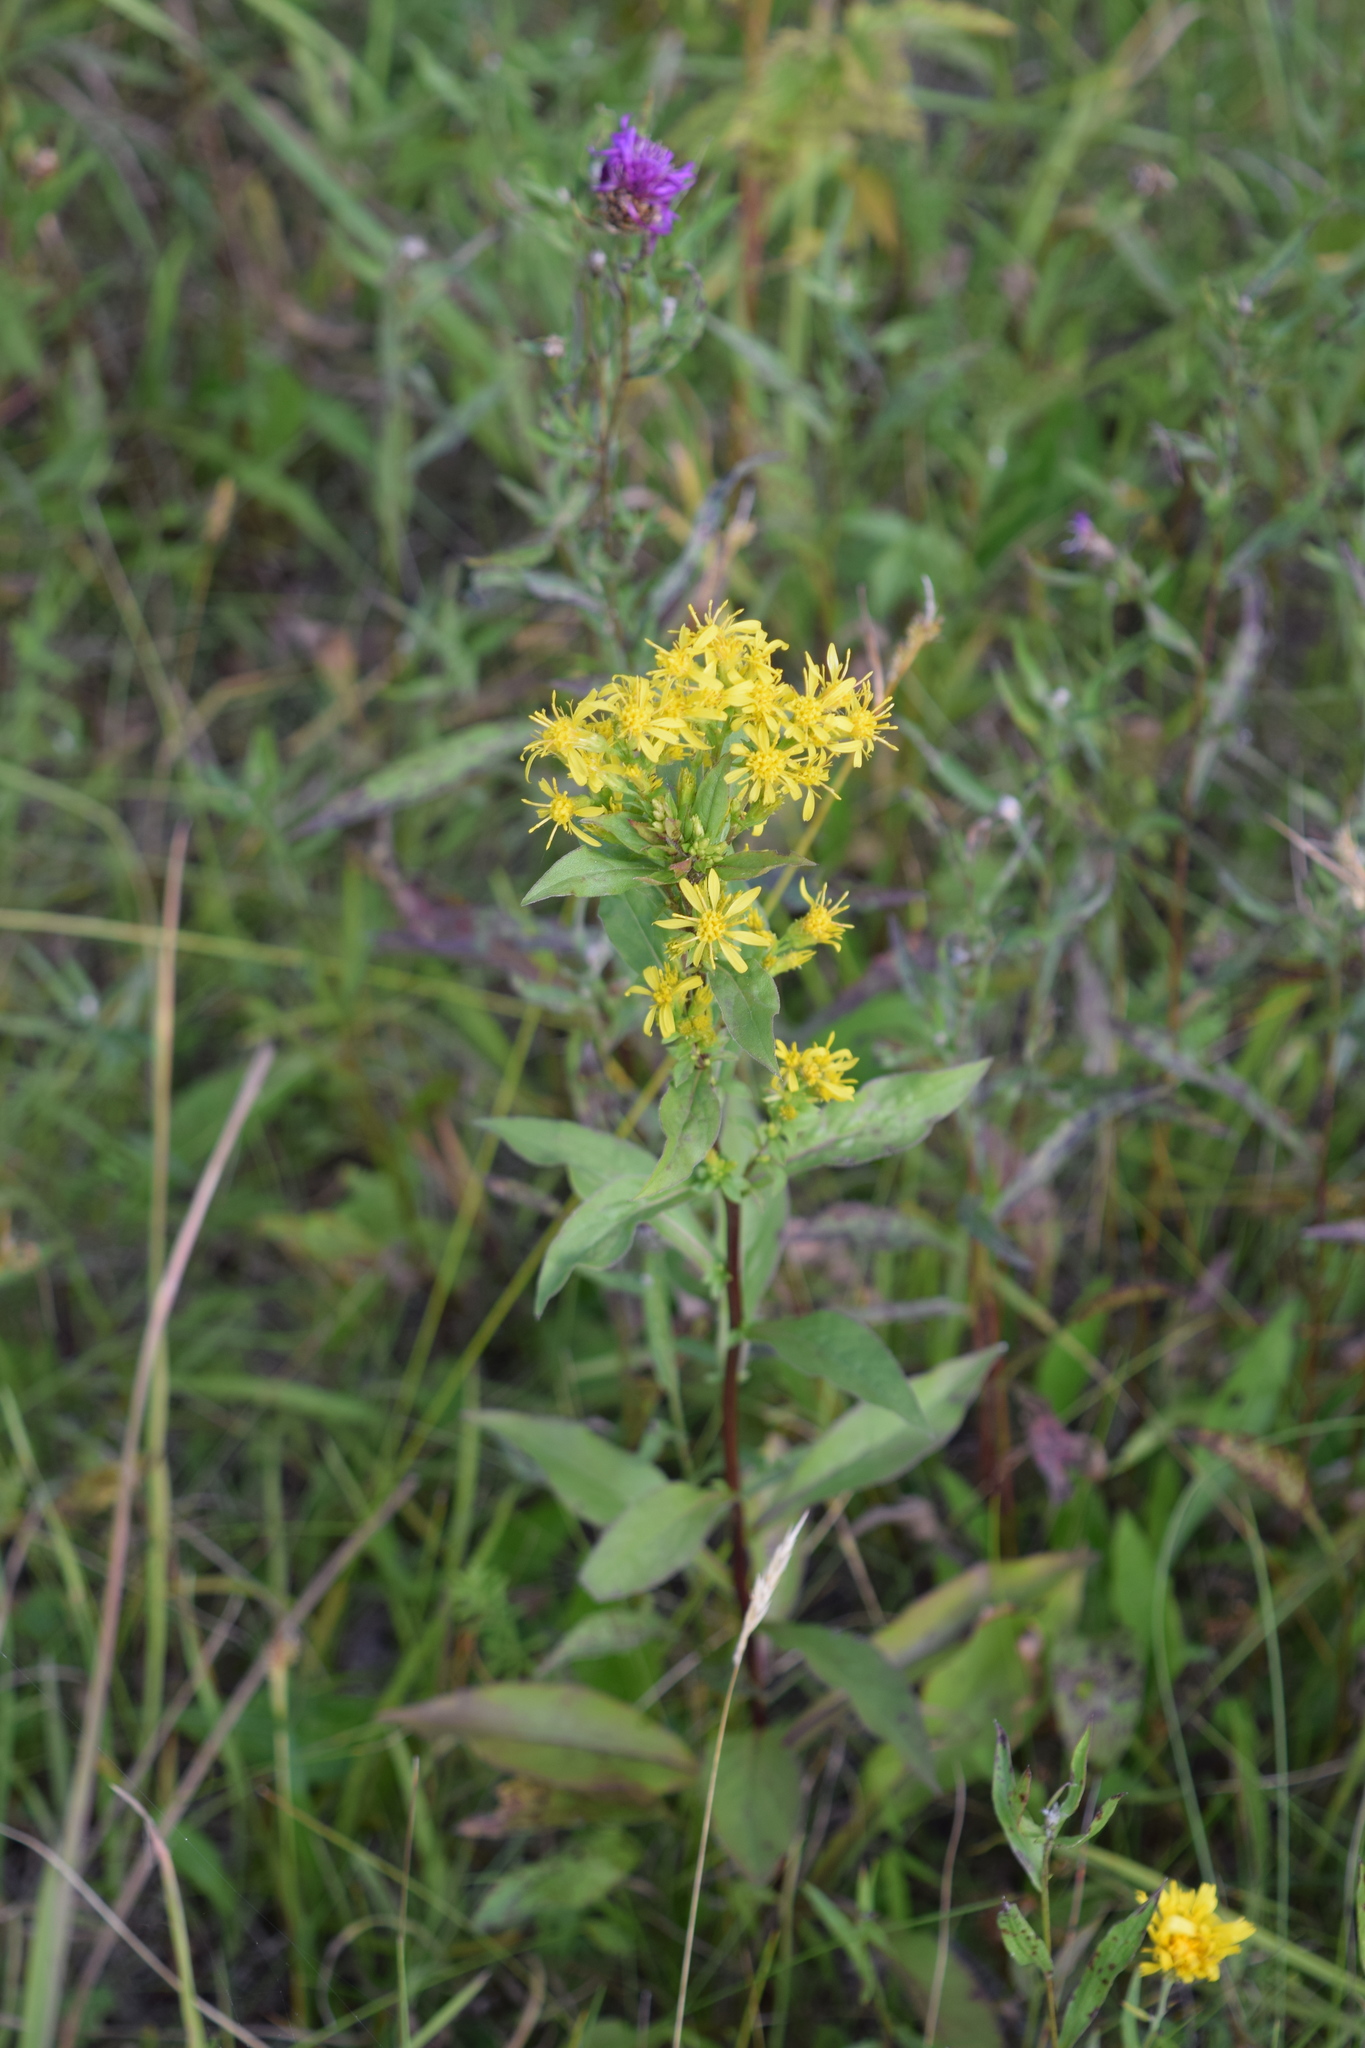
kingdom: Plantae
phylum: Tracheophyta
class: Magnoliopsida
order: Asterales
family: Asteraceae
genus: Solidago
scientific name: Solidago virgaurea
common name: Goldenrod
